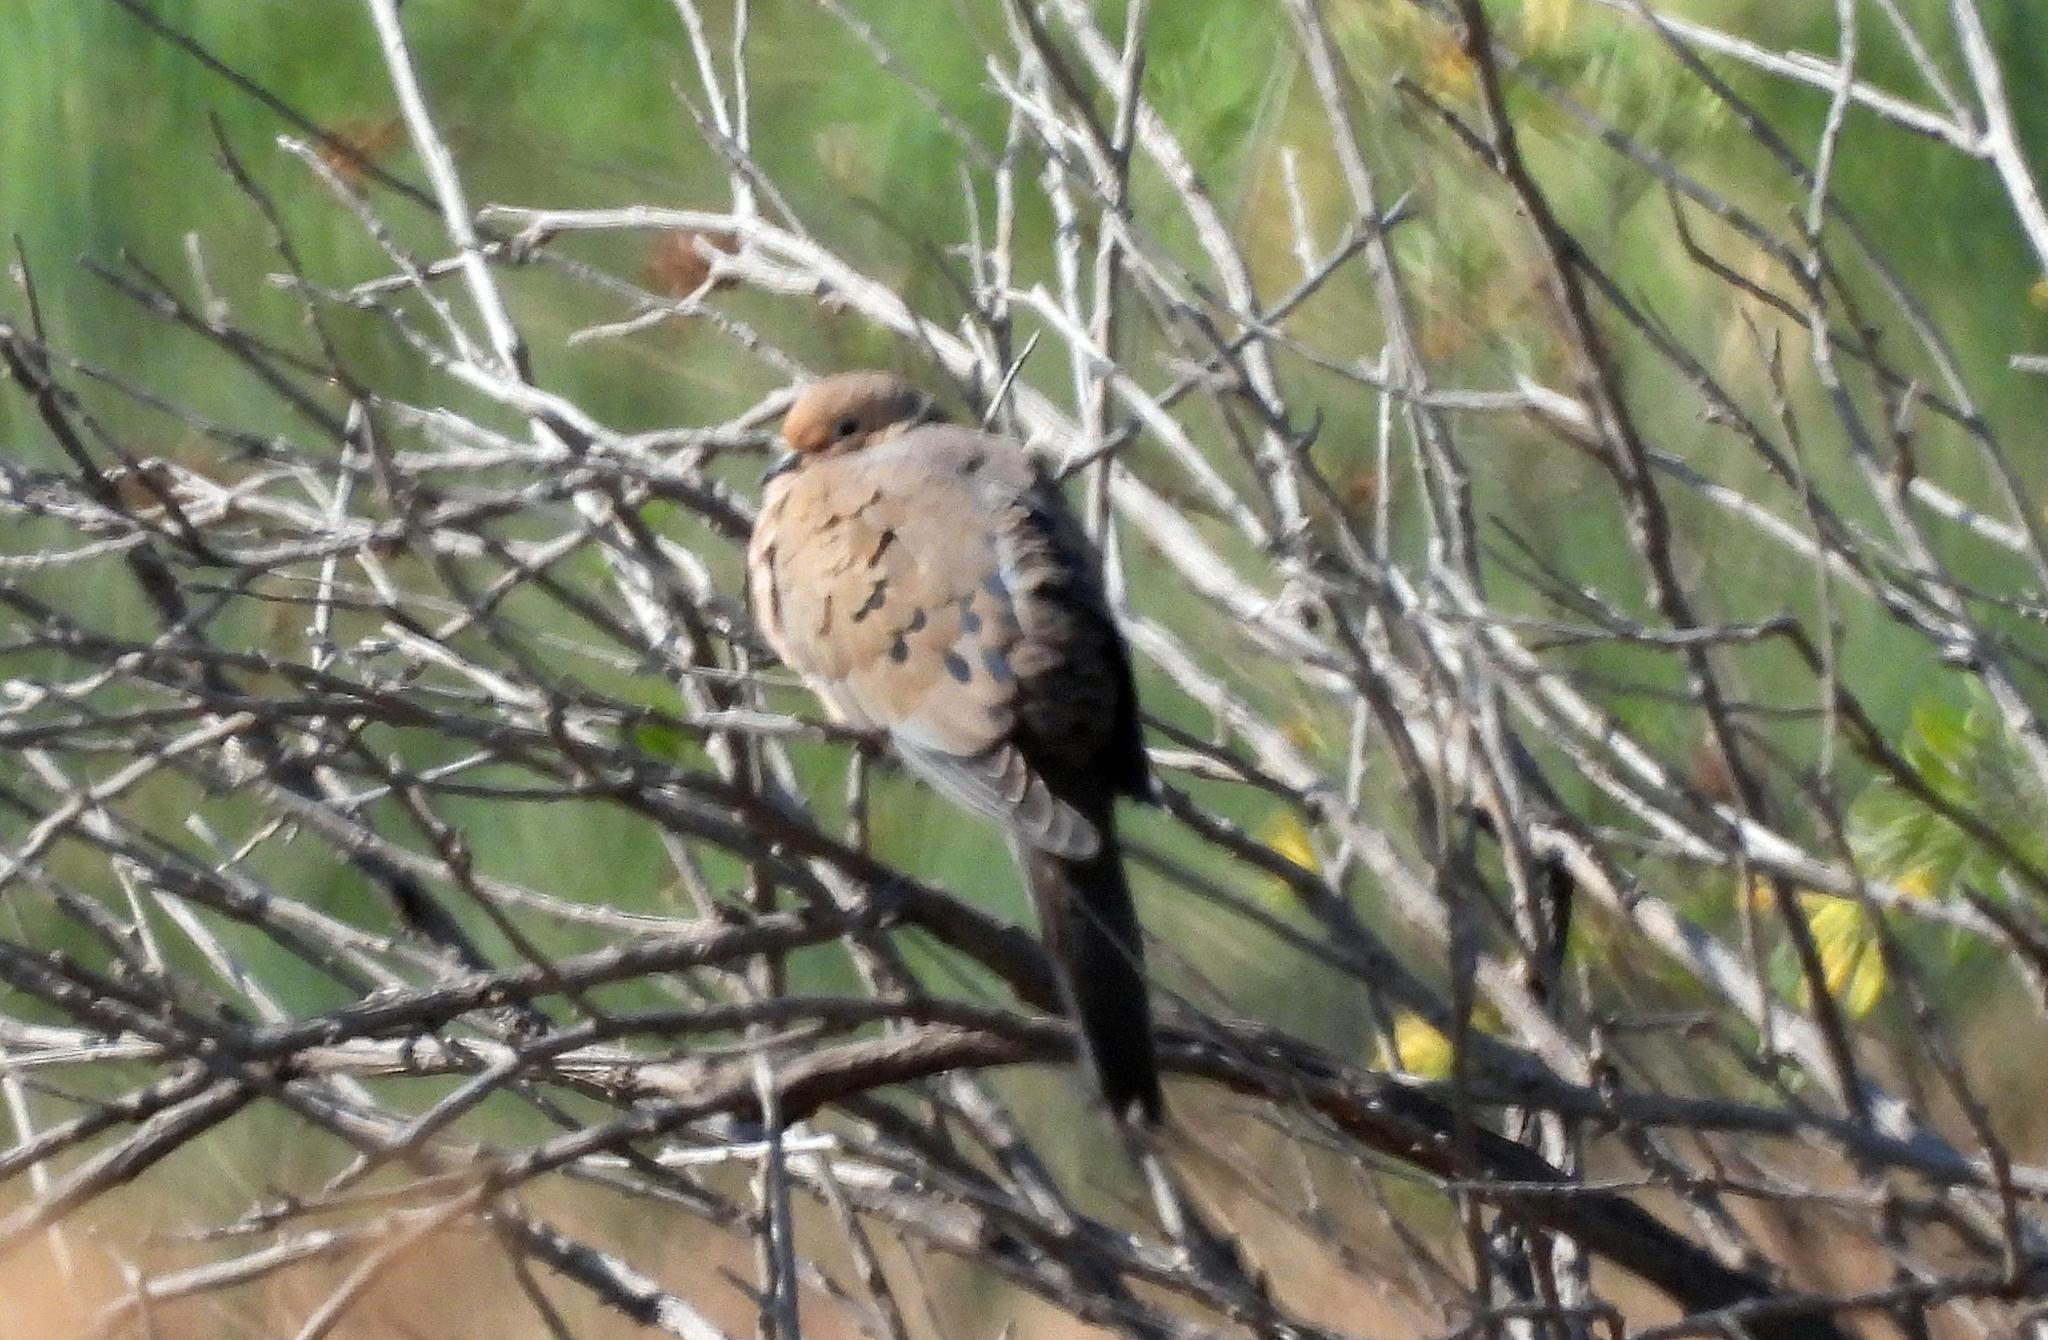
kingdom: Animalia
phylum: Chordata
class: Aves
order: Columbiformes
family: Columbidae
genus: Zenaida
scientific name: Zenaida macroura
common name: Mourning dove
